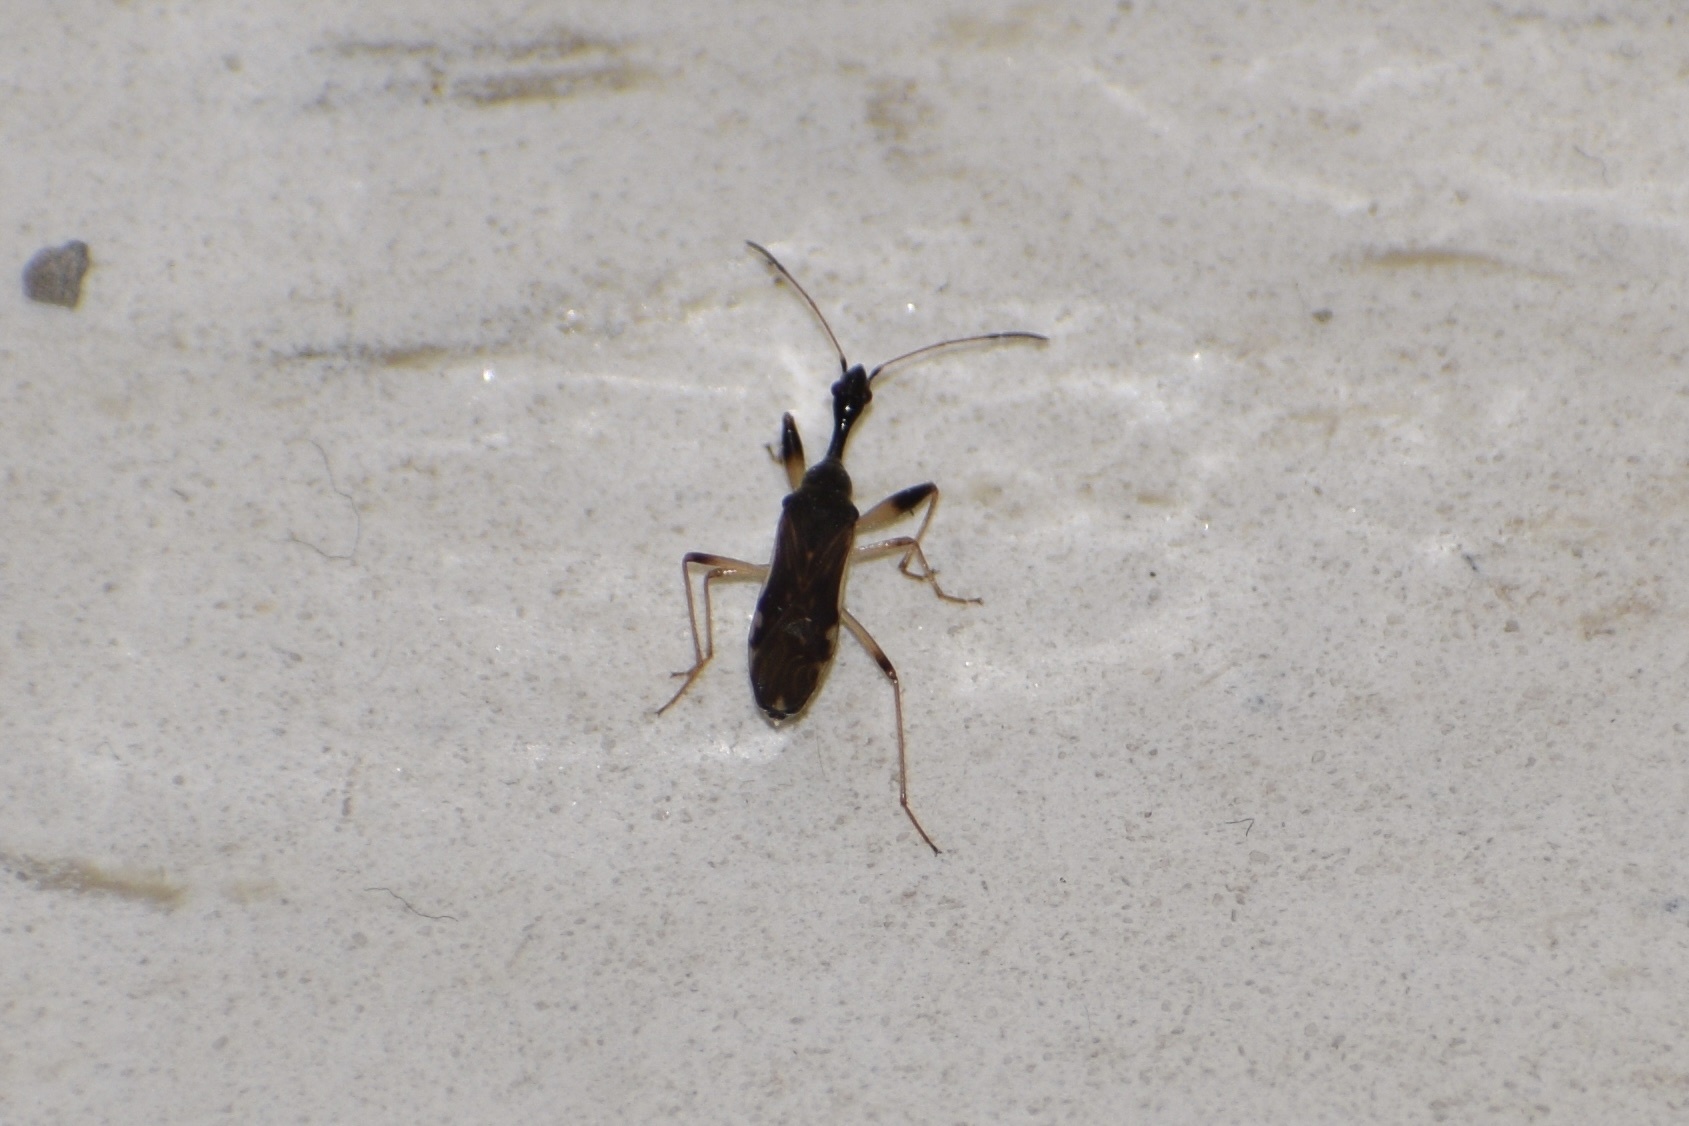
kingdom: Animalia
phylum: Arthropoda
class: Insecta
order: Hemiptera
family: Rhyparochromidae
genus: Myodocha
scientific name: Myodocha serripes
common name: Long-necked seed bug
